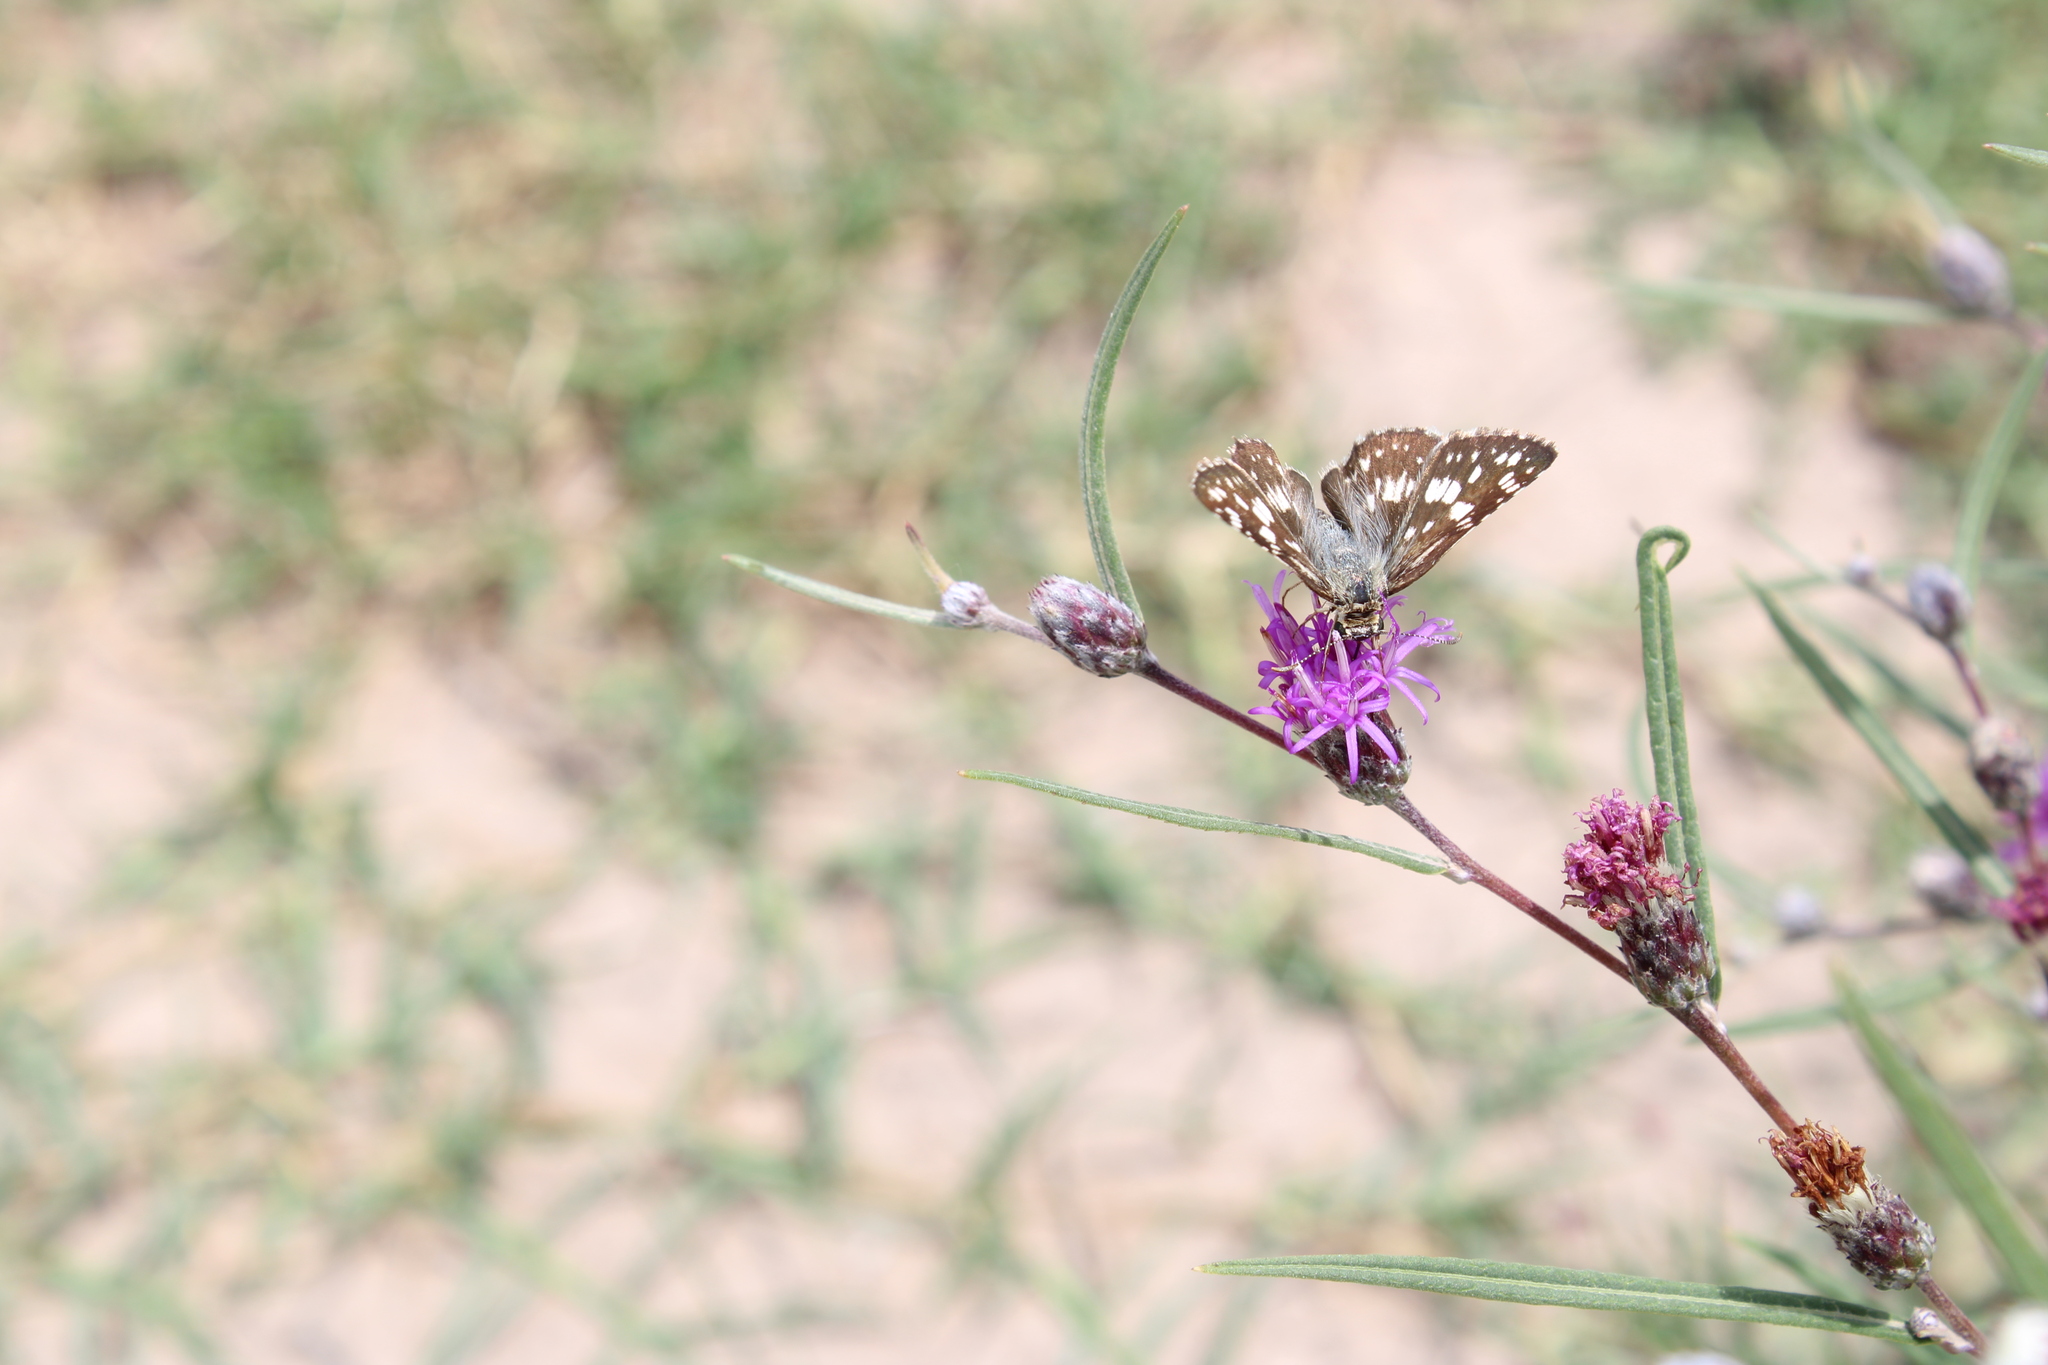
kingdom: Animalia
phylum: Arthropoda
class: Insecta
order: Lepidoptera
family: Hesperiidae
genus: Burnsius
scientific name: Burnsius orcynoides
